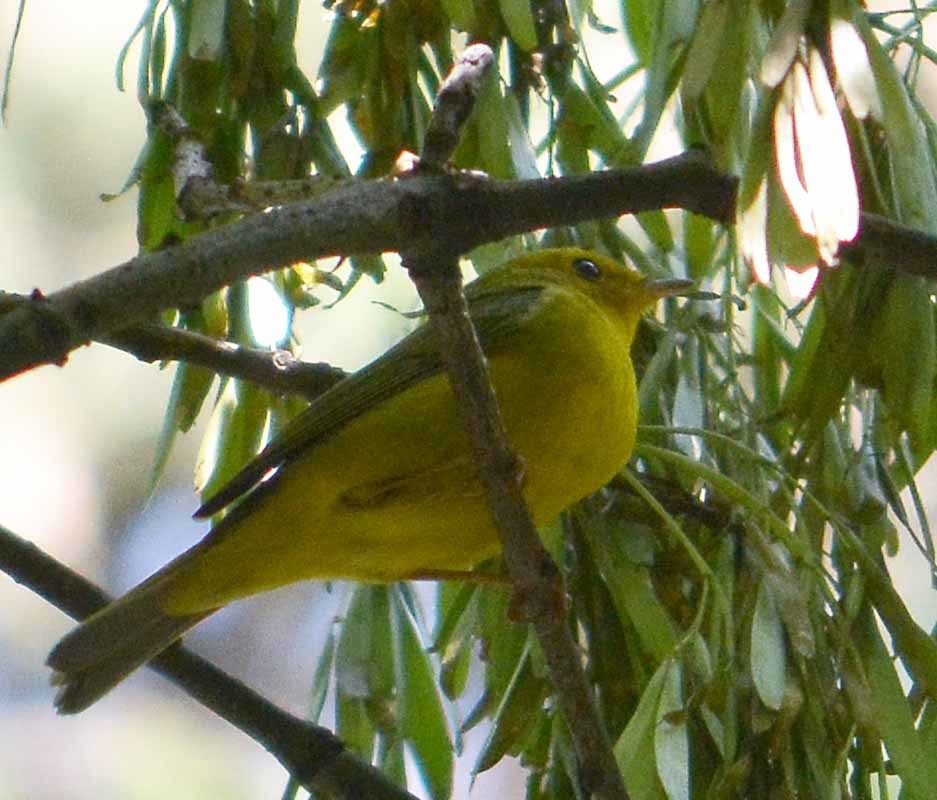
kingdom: Animalia
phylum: Chordata
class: Aves
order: Passeriformes
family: Parulidae
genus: Cardellina
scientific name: Cardellina pusilla
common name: Wilson's warbler
